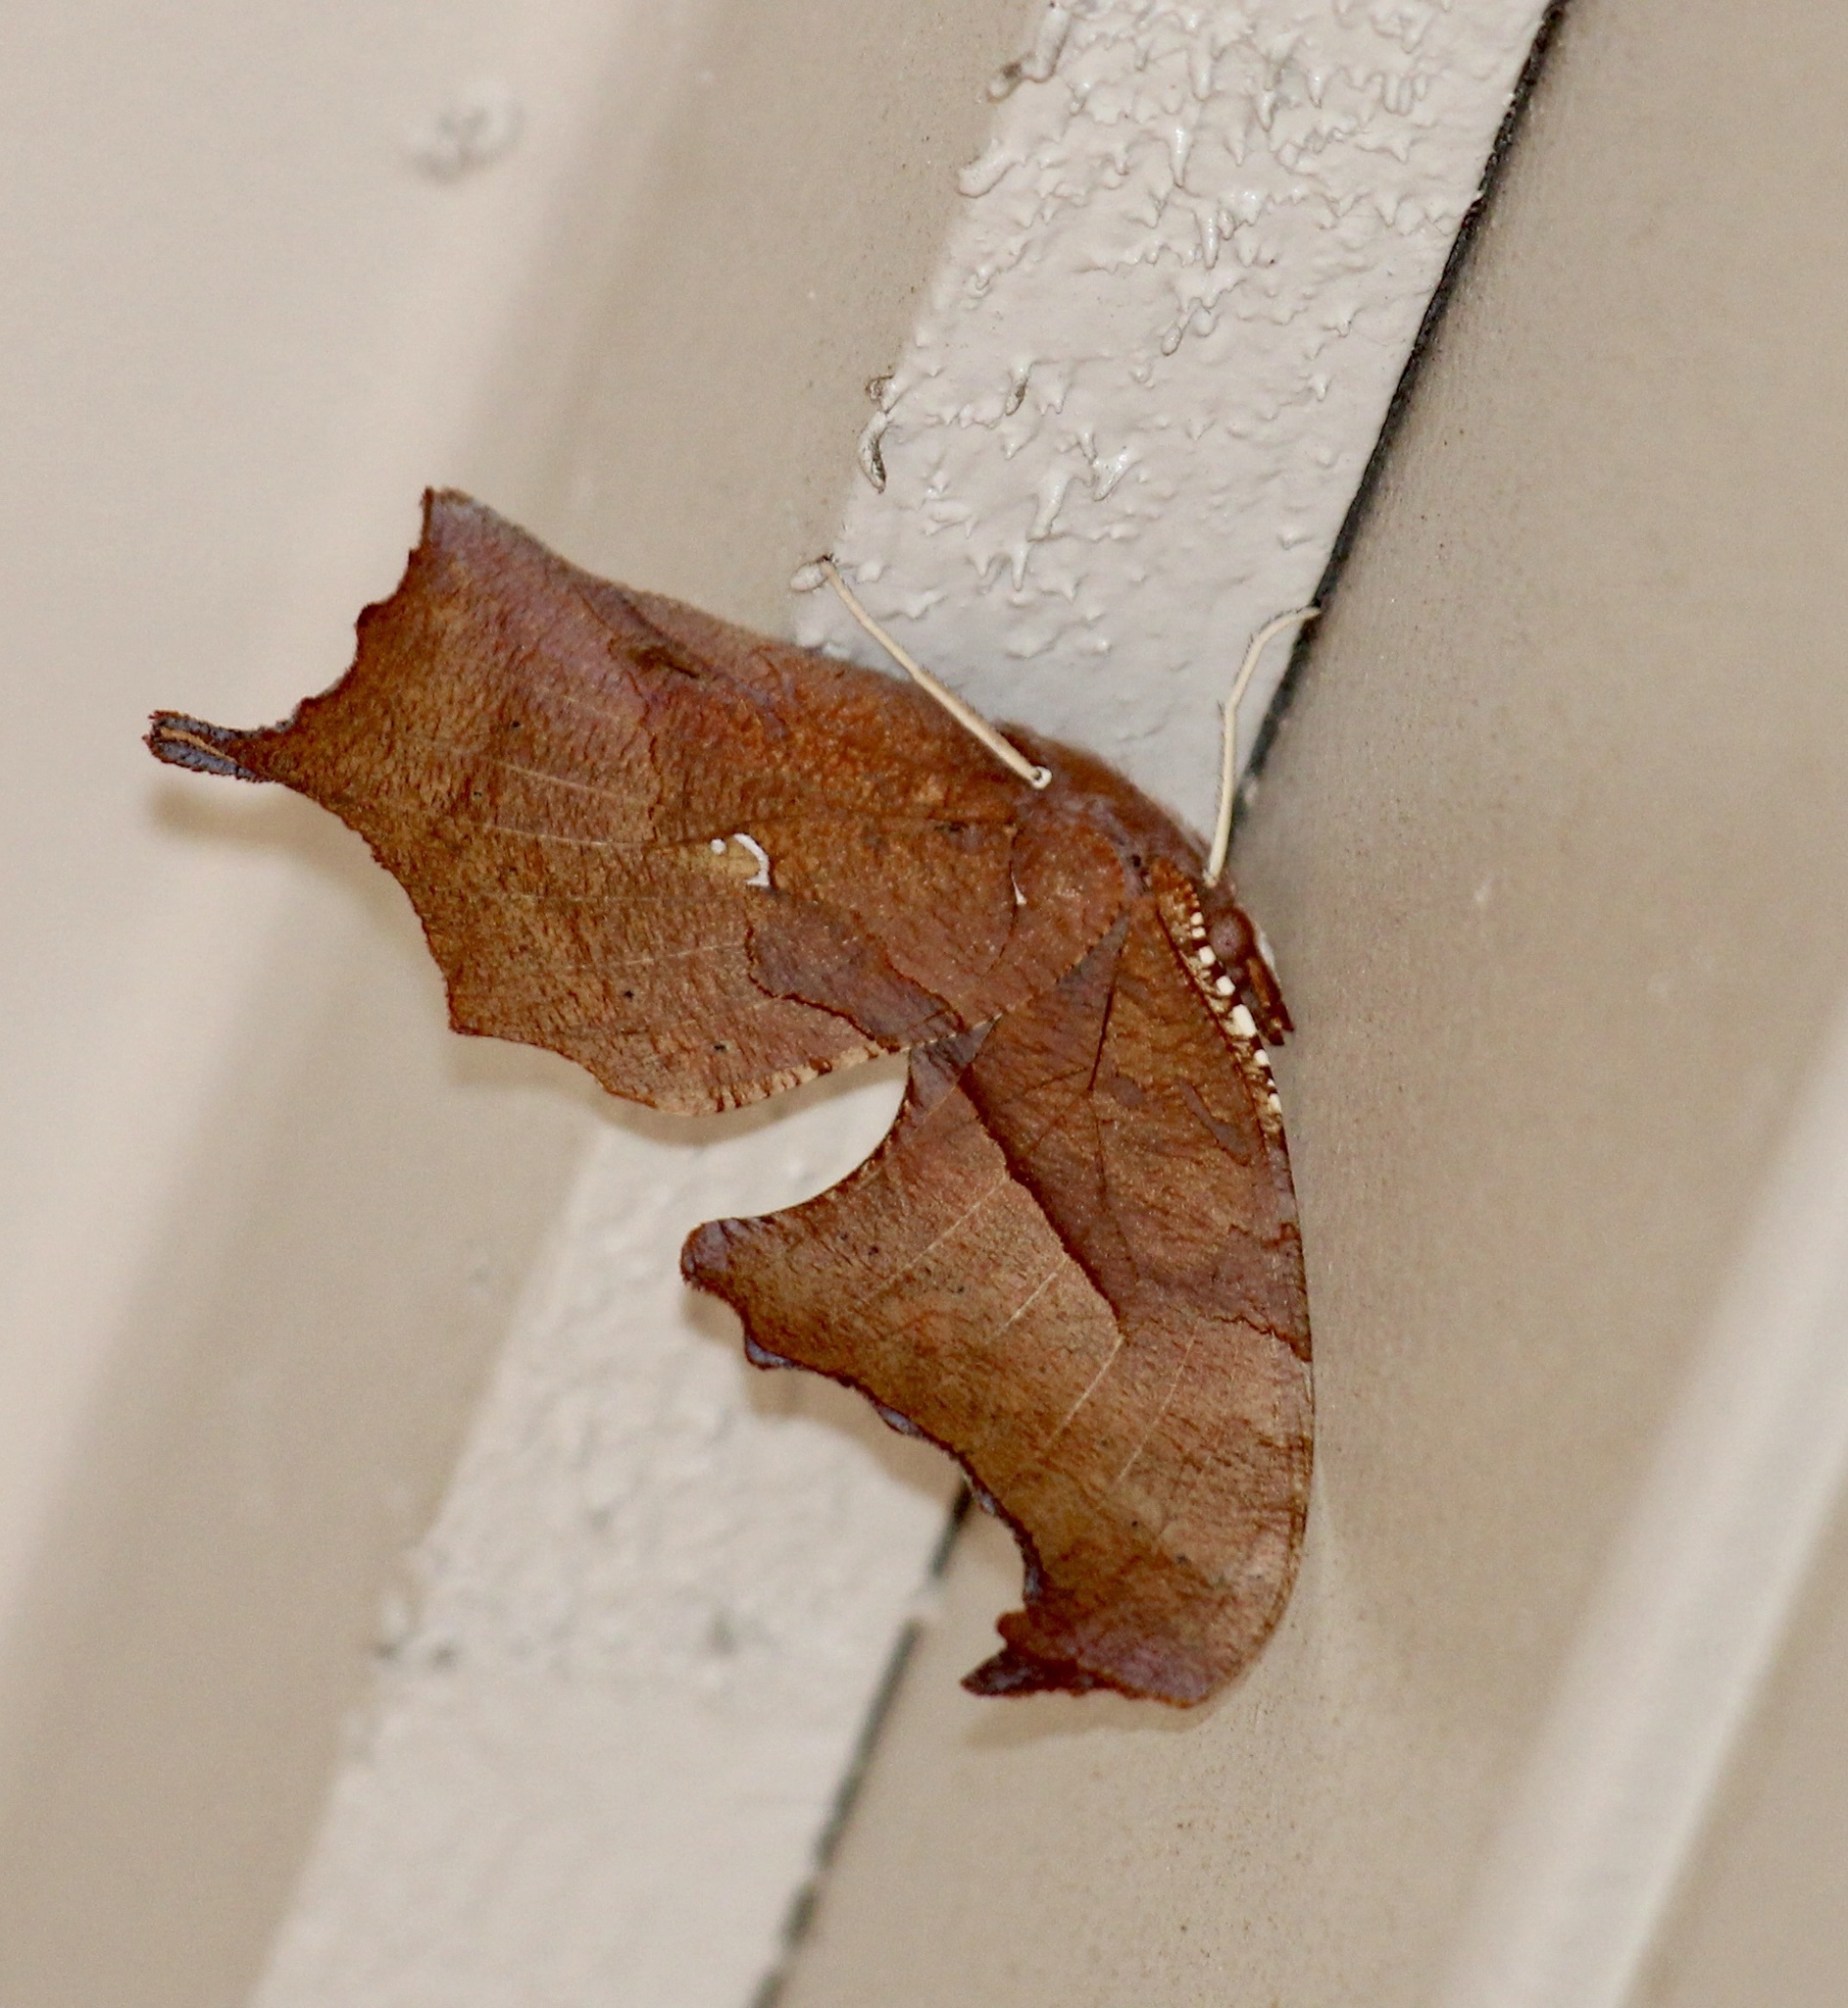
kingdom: Animalia
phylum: Arthropoda
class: Insecta
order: Lepidoptera
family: Nymphalidae
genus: Polygonia
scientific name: Polygonia interrogationis
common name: Question mark
